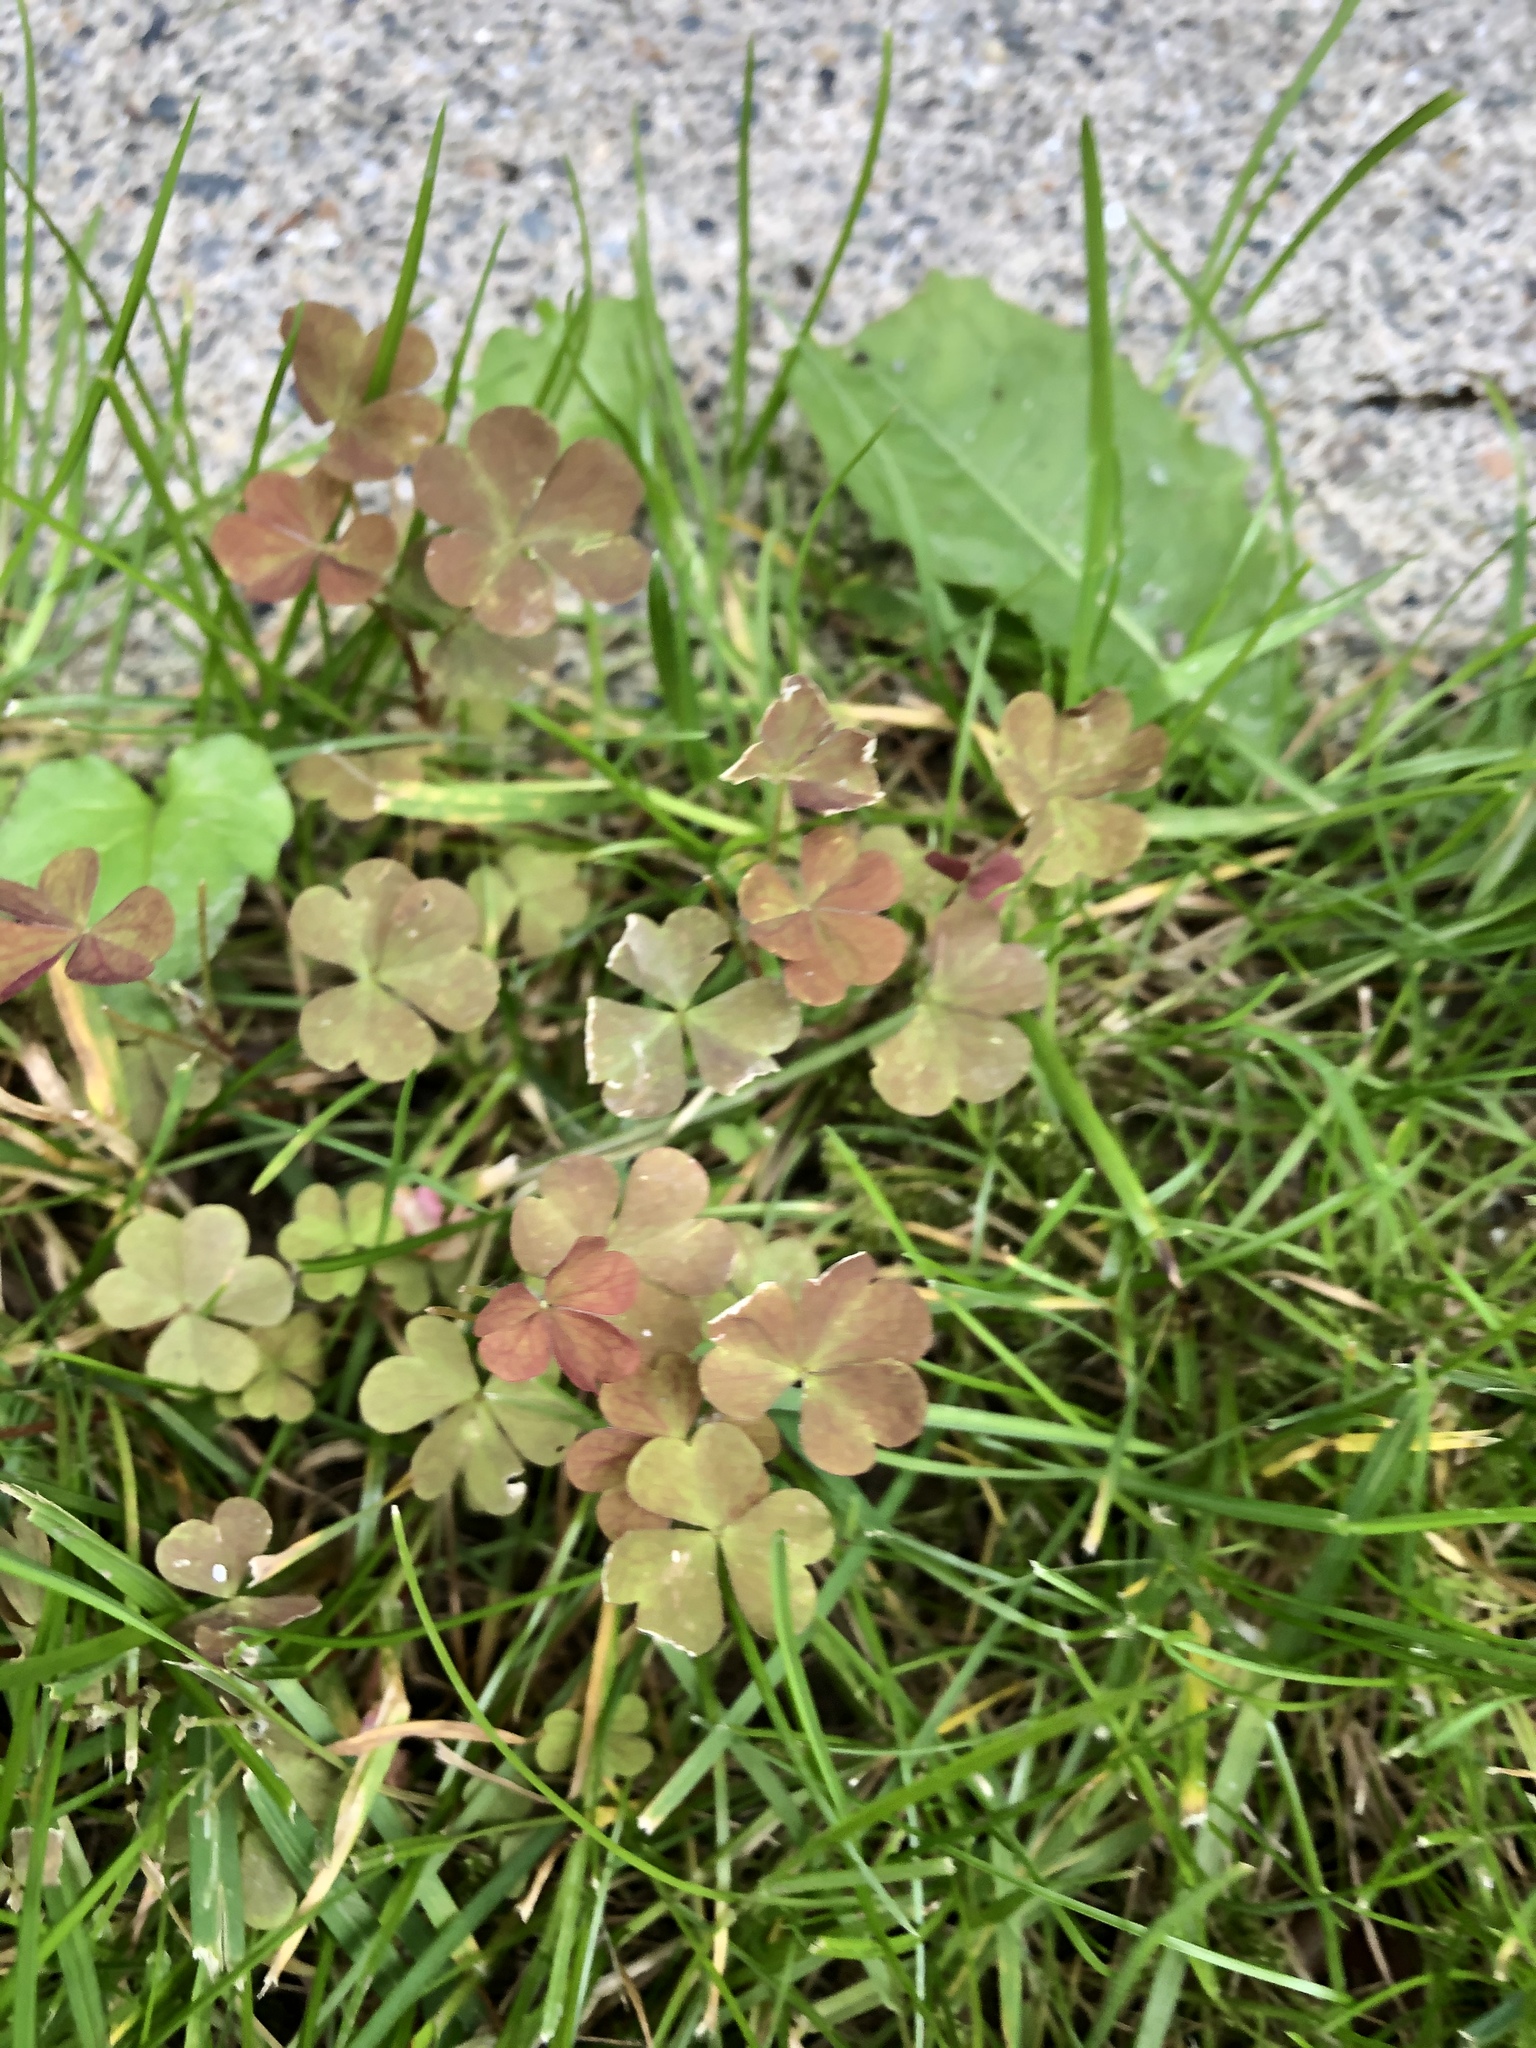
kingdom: Plantae
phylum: Tracheophyta
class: Magnoliopsida
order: Oxalidales
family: Oxalidaceae
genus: Oxalis
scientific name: Oxalis corniculata
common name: Procumbent yellow-sorrel
